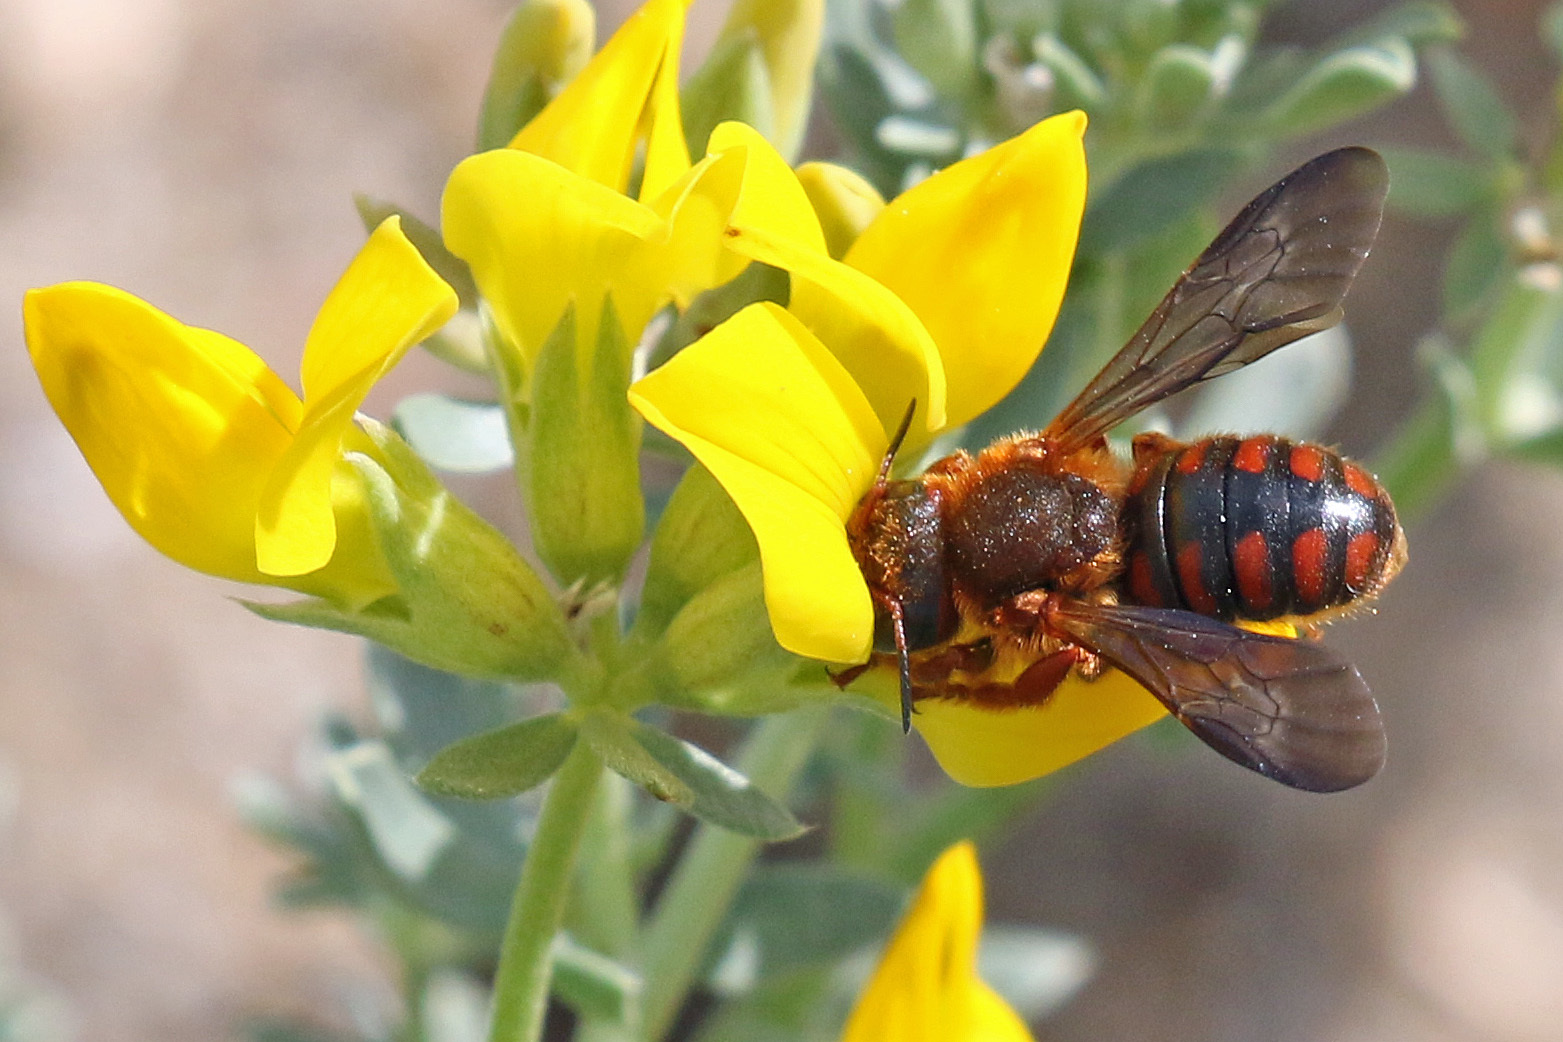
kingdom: Animalia
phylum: Arthropoda
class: Insecta
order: Hymenoptera
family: Megachilidae
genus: Rhodanthidium
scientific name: Rhodanthidium sticticum
